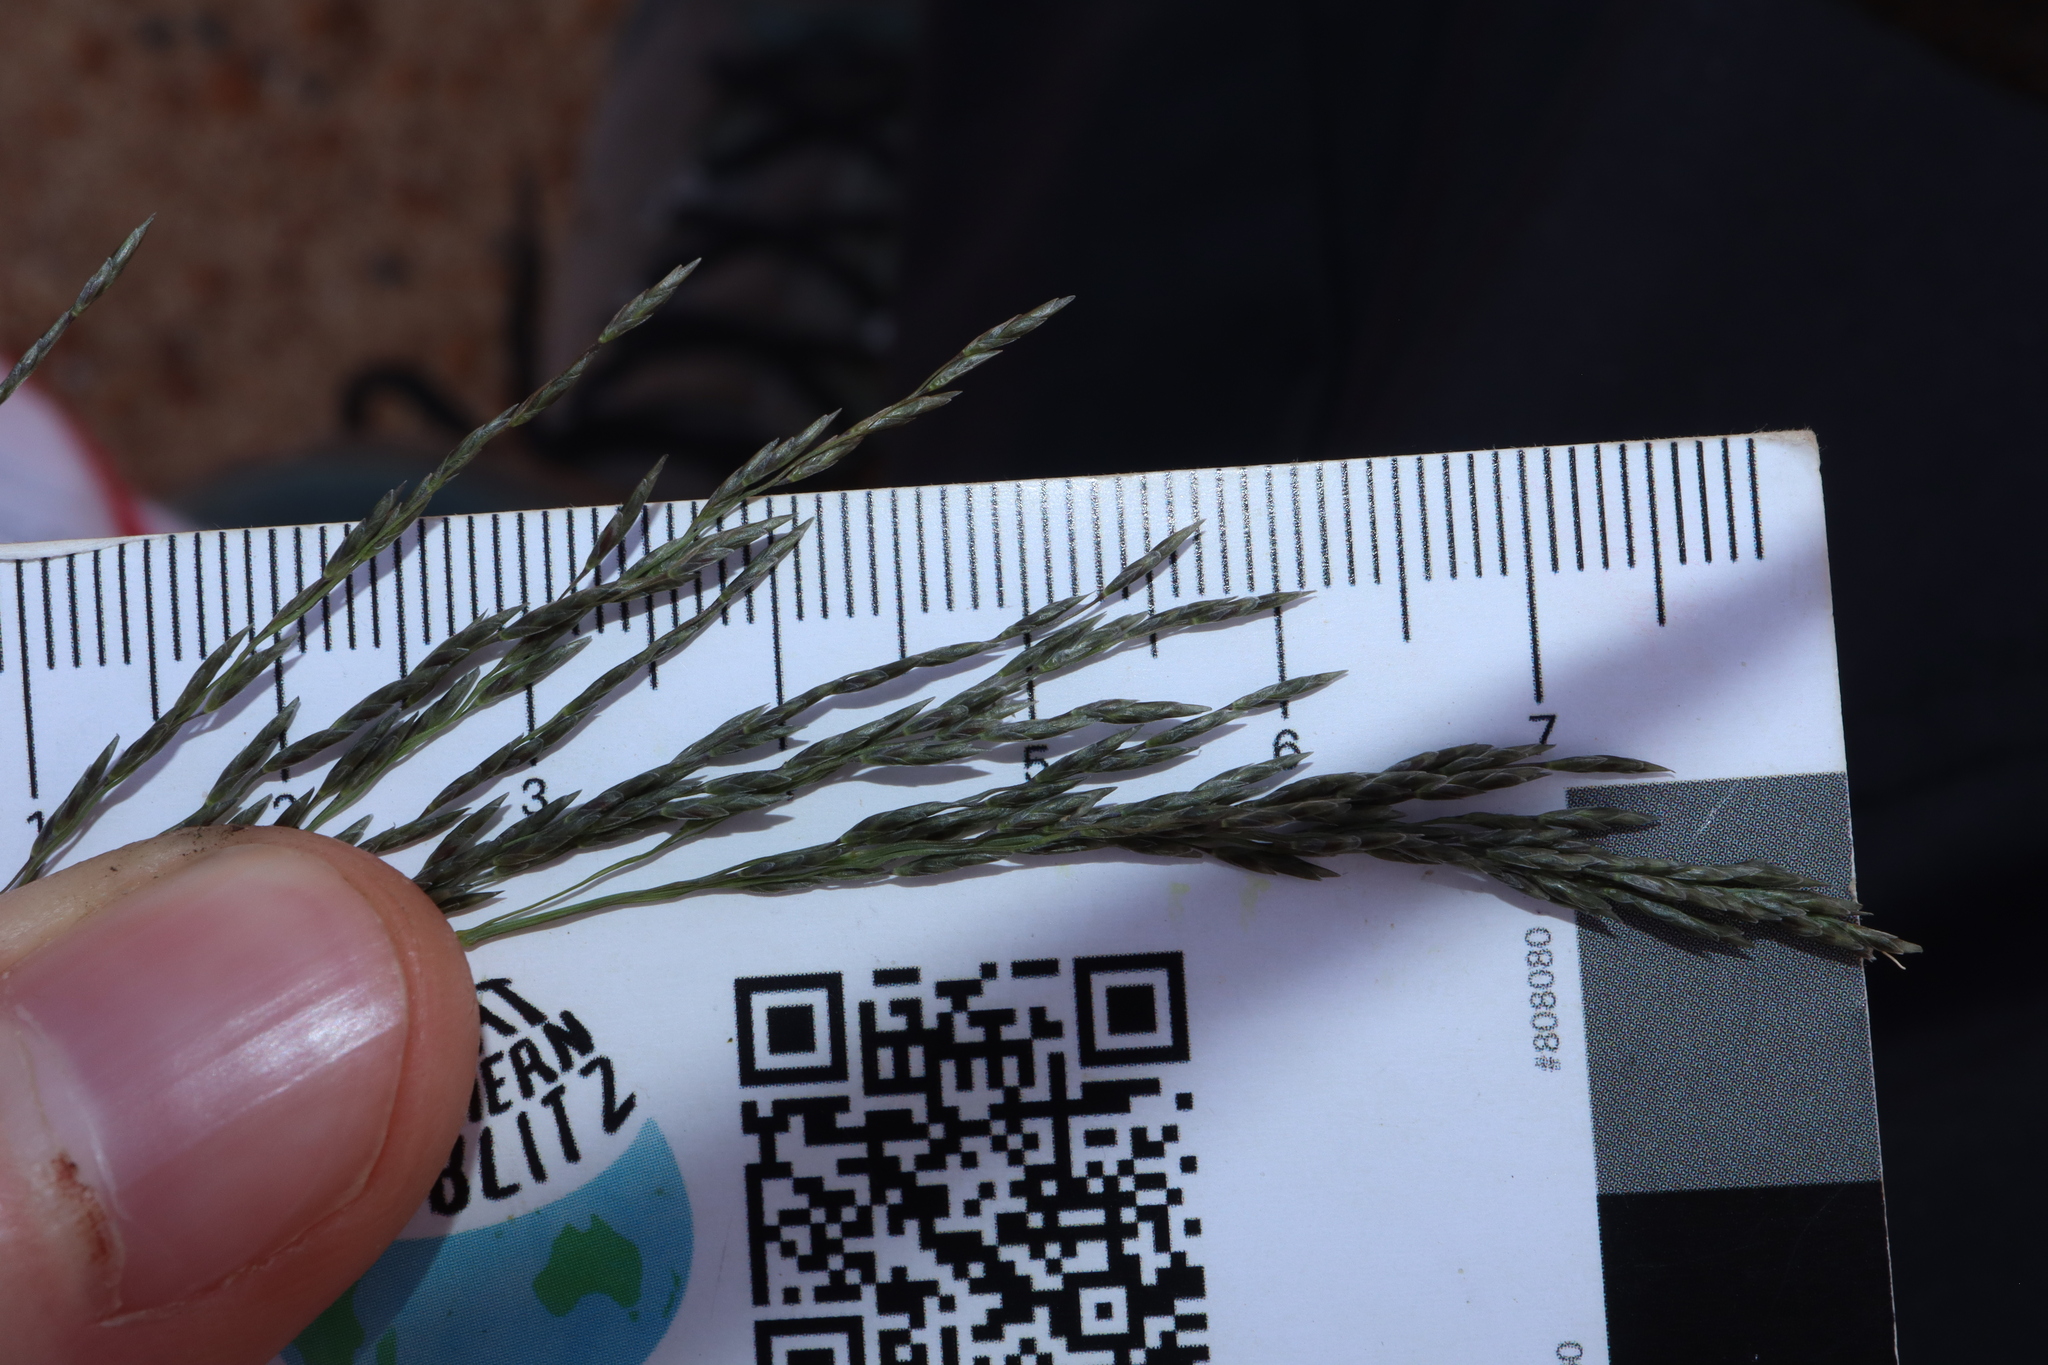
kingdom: Plantae
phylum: Tracheophyta
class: Liliopsida
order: Poales
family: Poaceae
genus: Eragrostis
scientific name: Eragrostis curvula
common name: African love-grass
